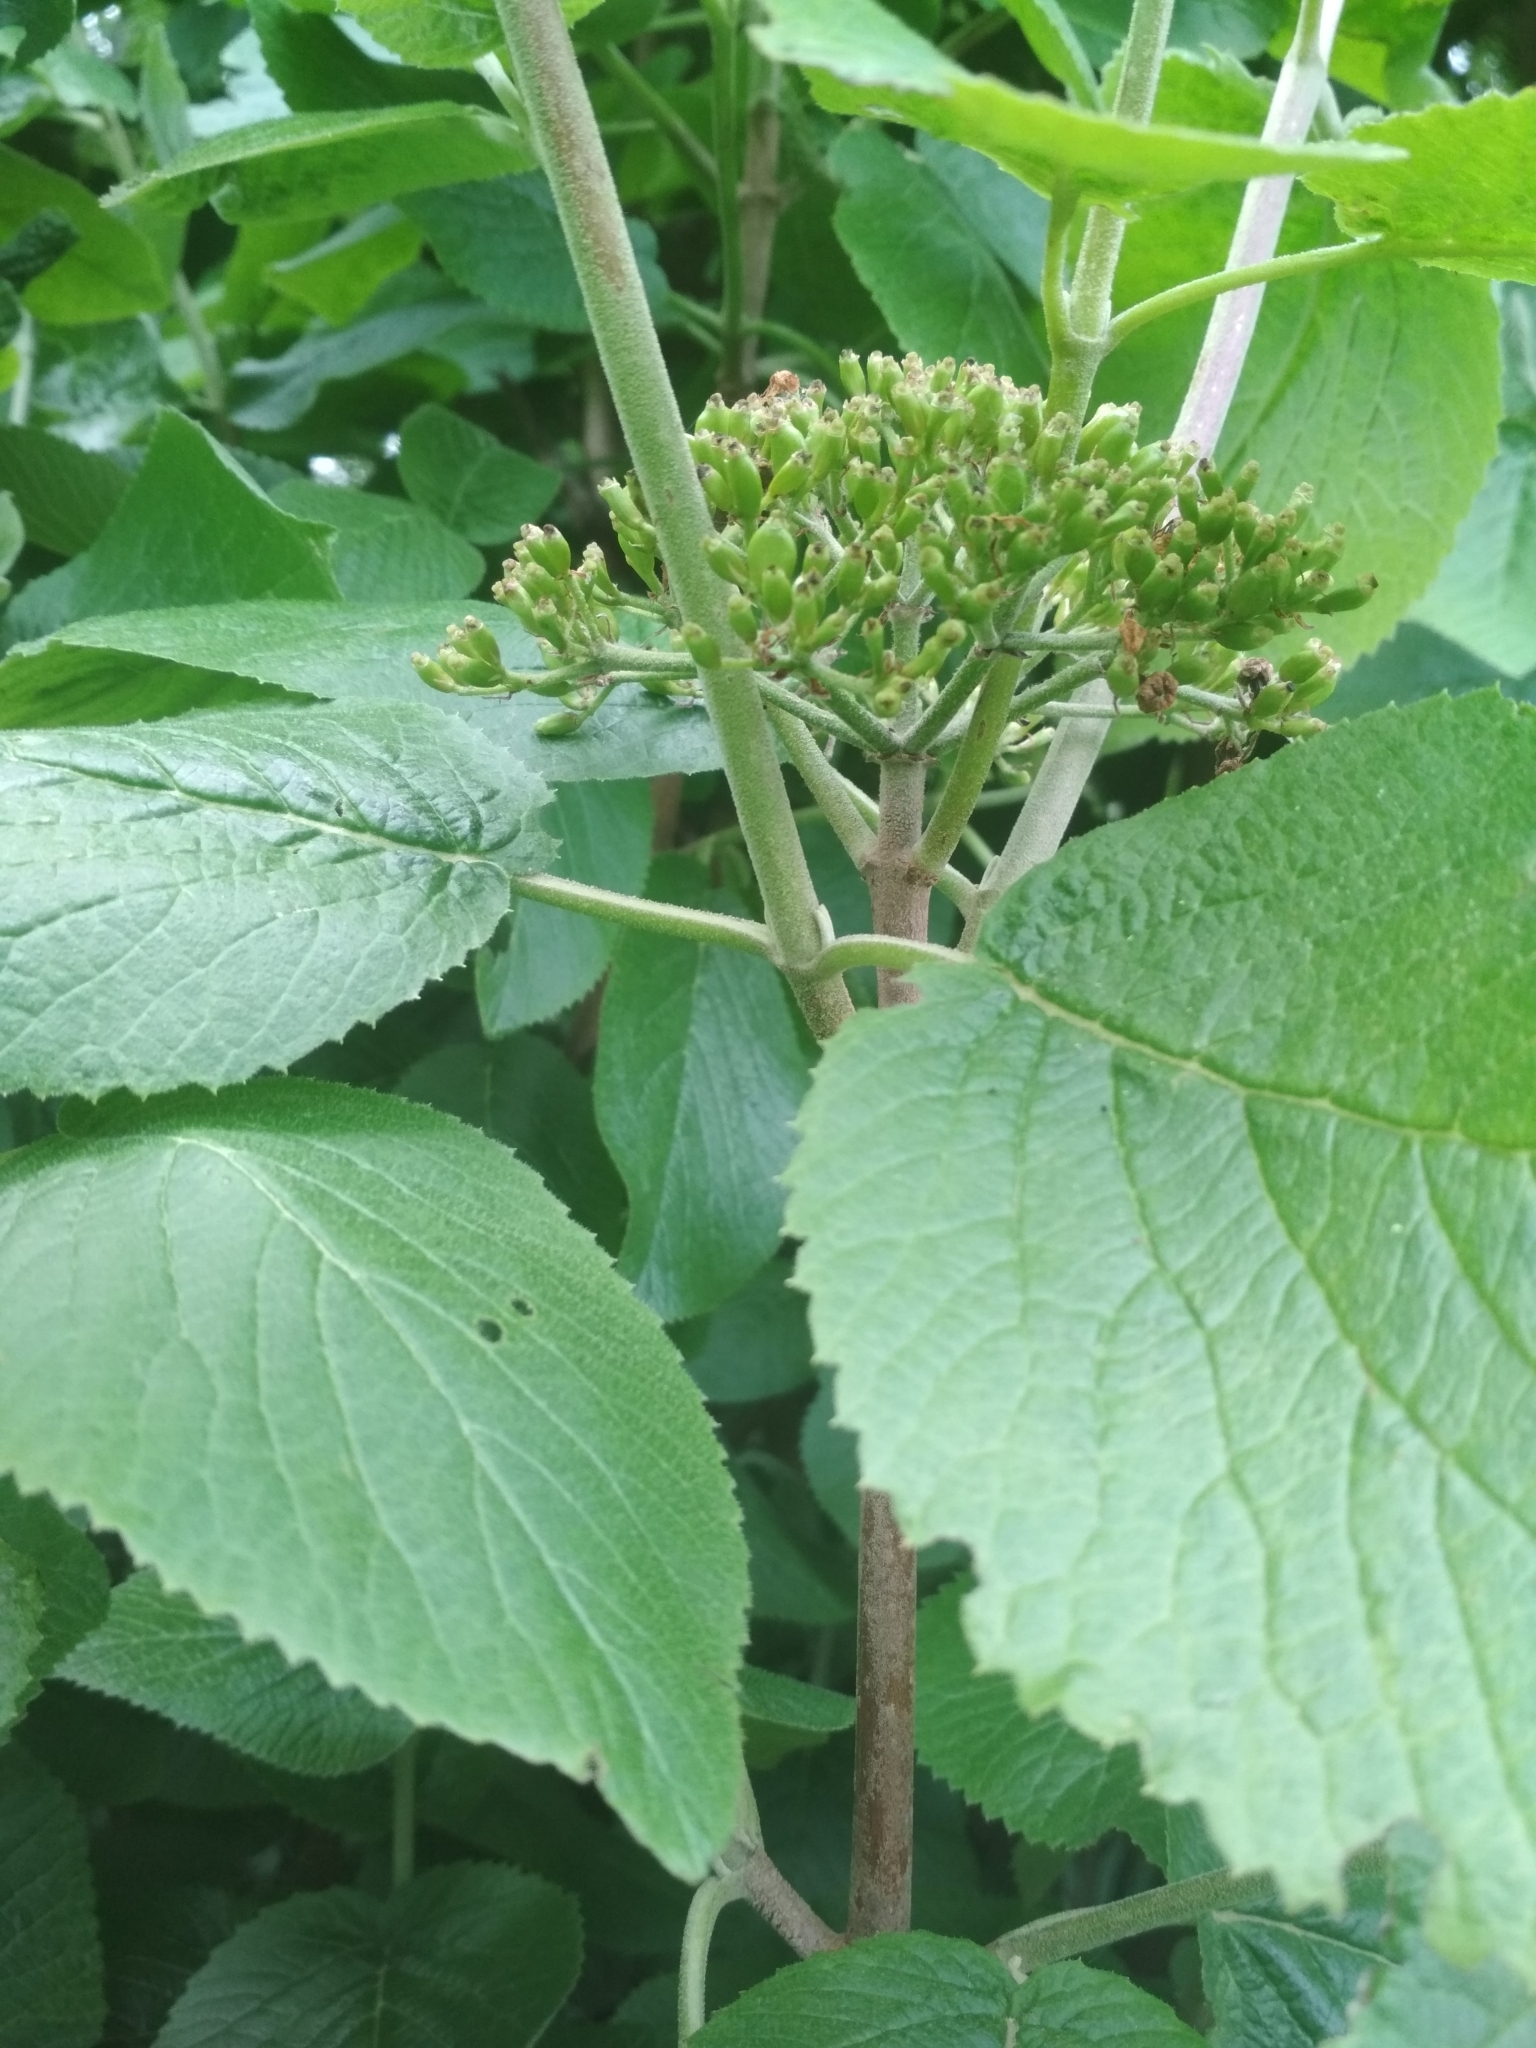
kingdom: Plantae
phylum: Tracheophyta
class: Magnoliopsida
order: Dipsacales
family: Viburnaceae
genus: Viburnum
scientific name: Viburnum lantana
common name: Wayfaring tree
